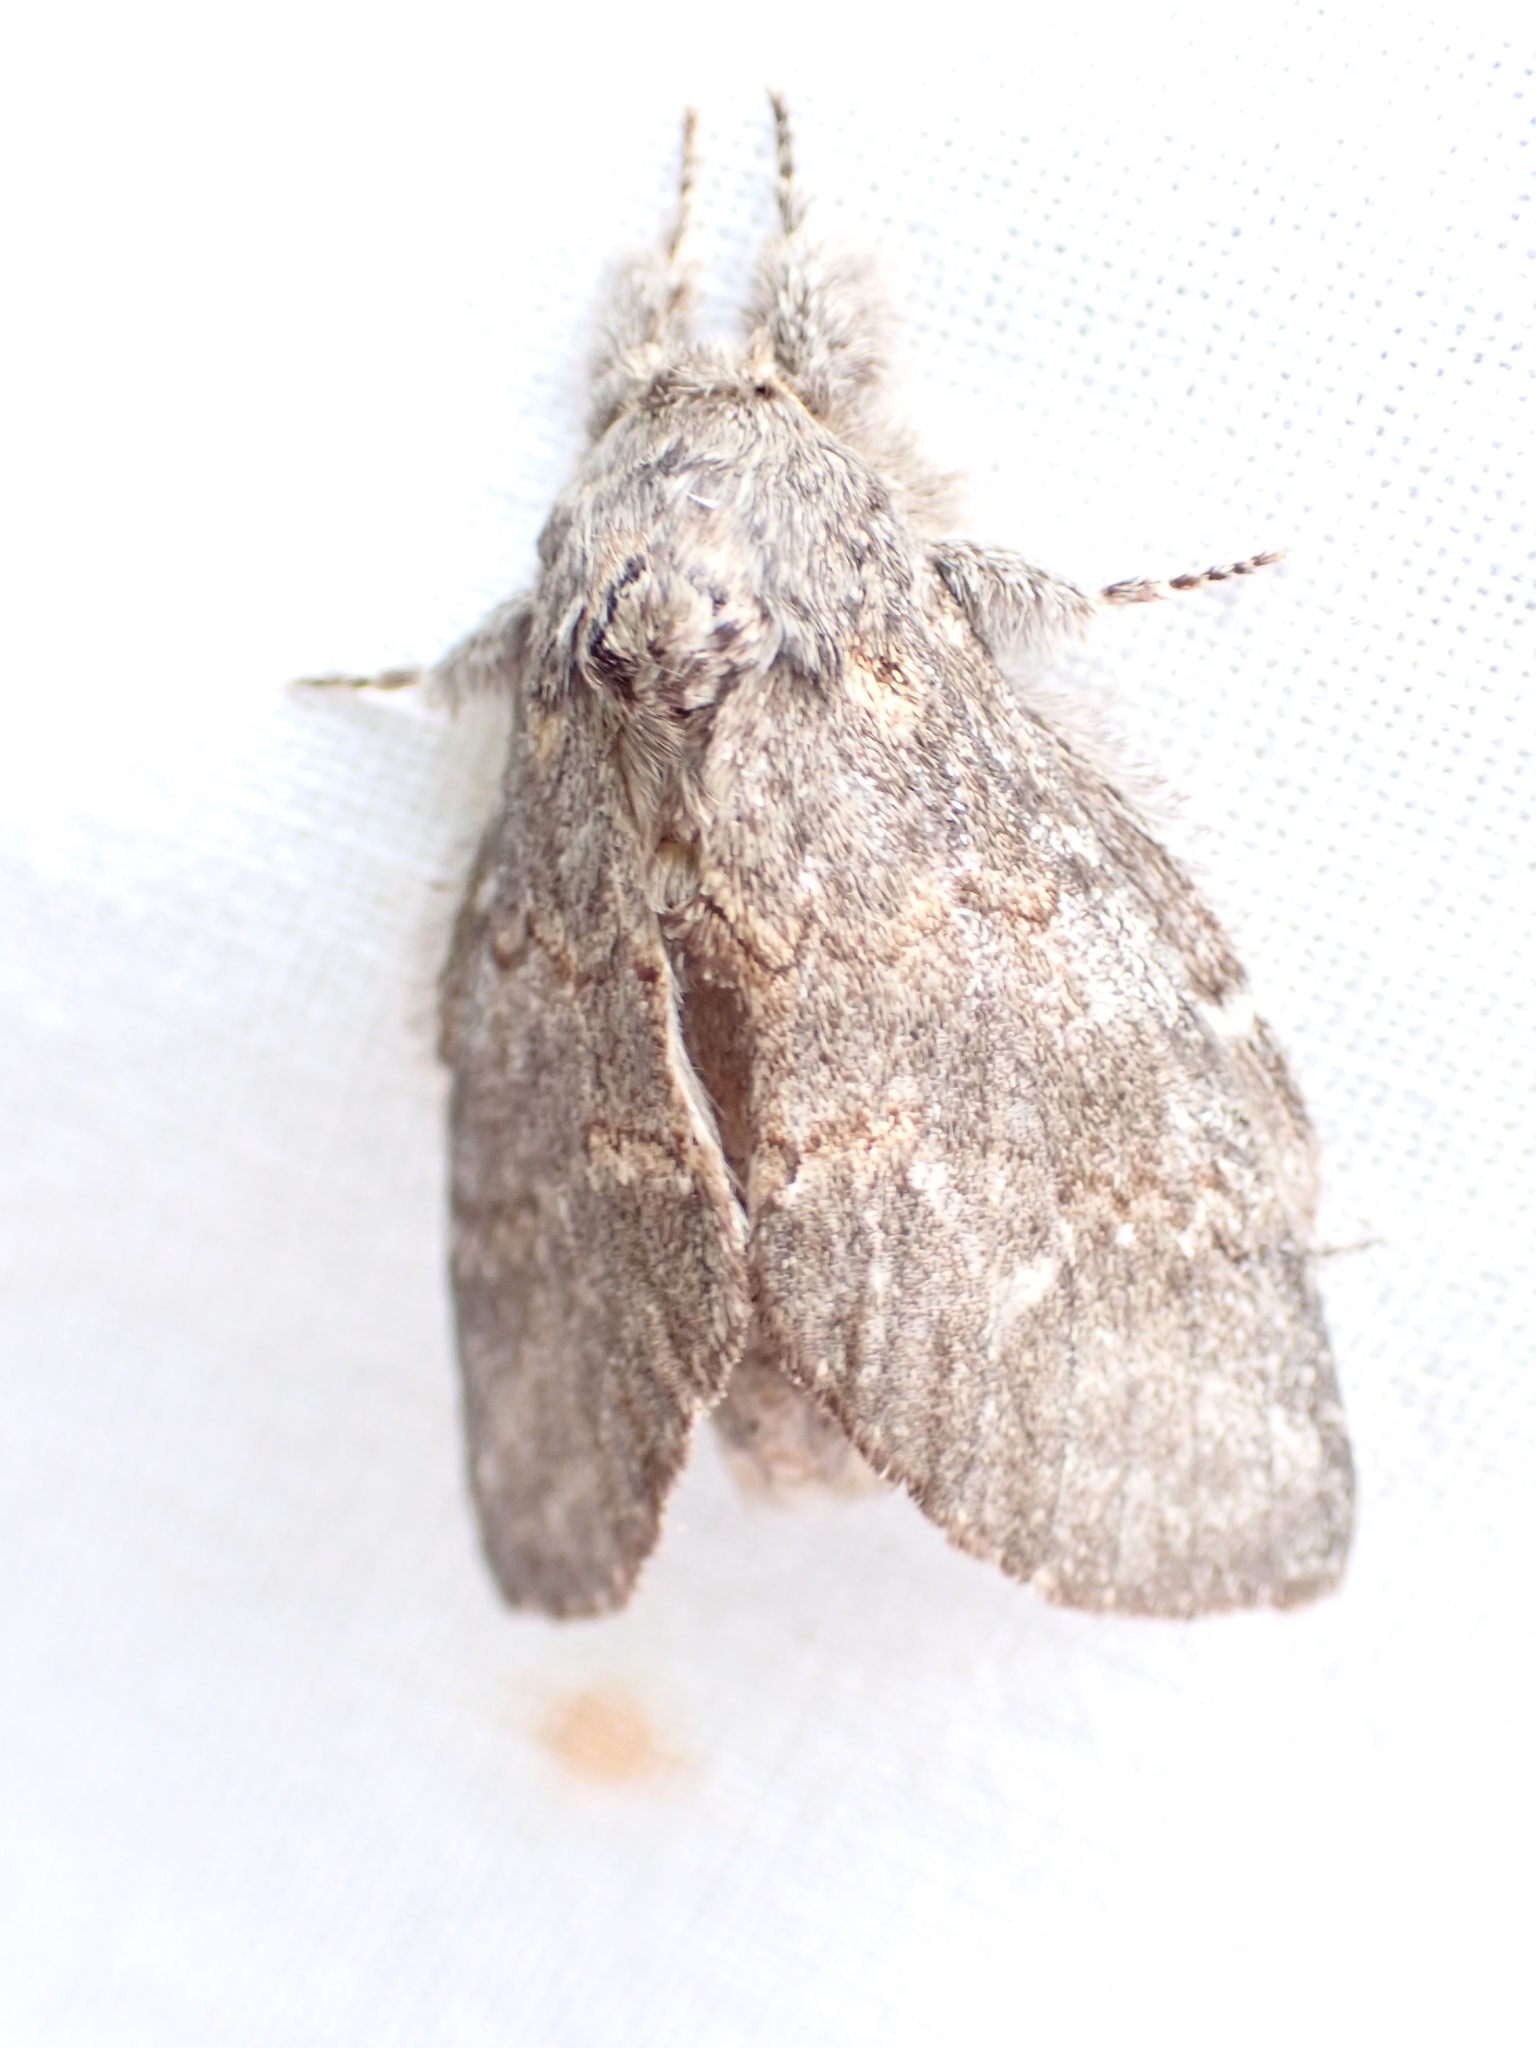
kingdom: Animalia
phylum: Arthropoda
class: Insecta
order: Lepidoptera
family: Notodontidae
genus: Peridea
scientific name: Peridea angulosa
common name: Angulose prominent
